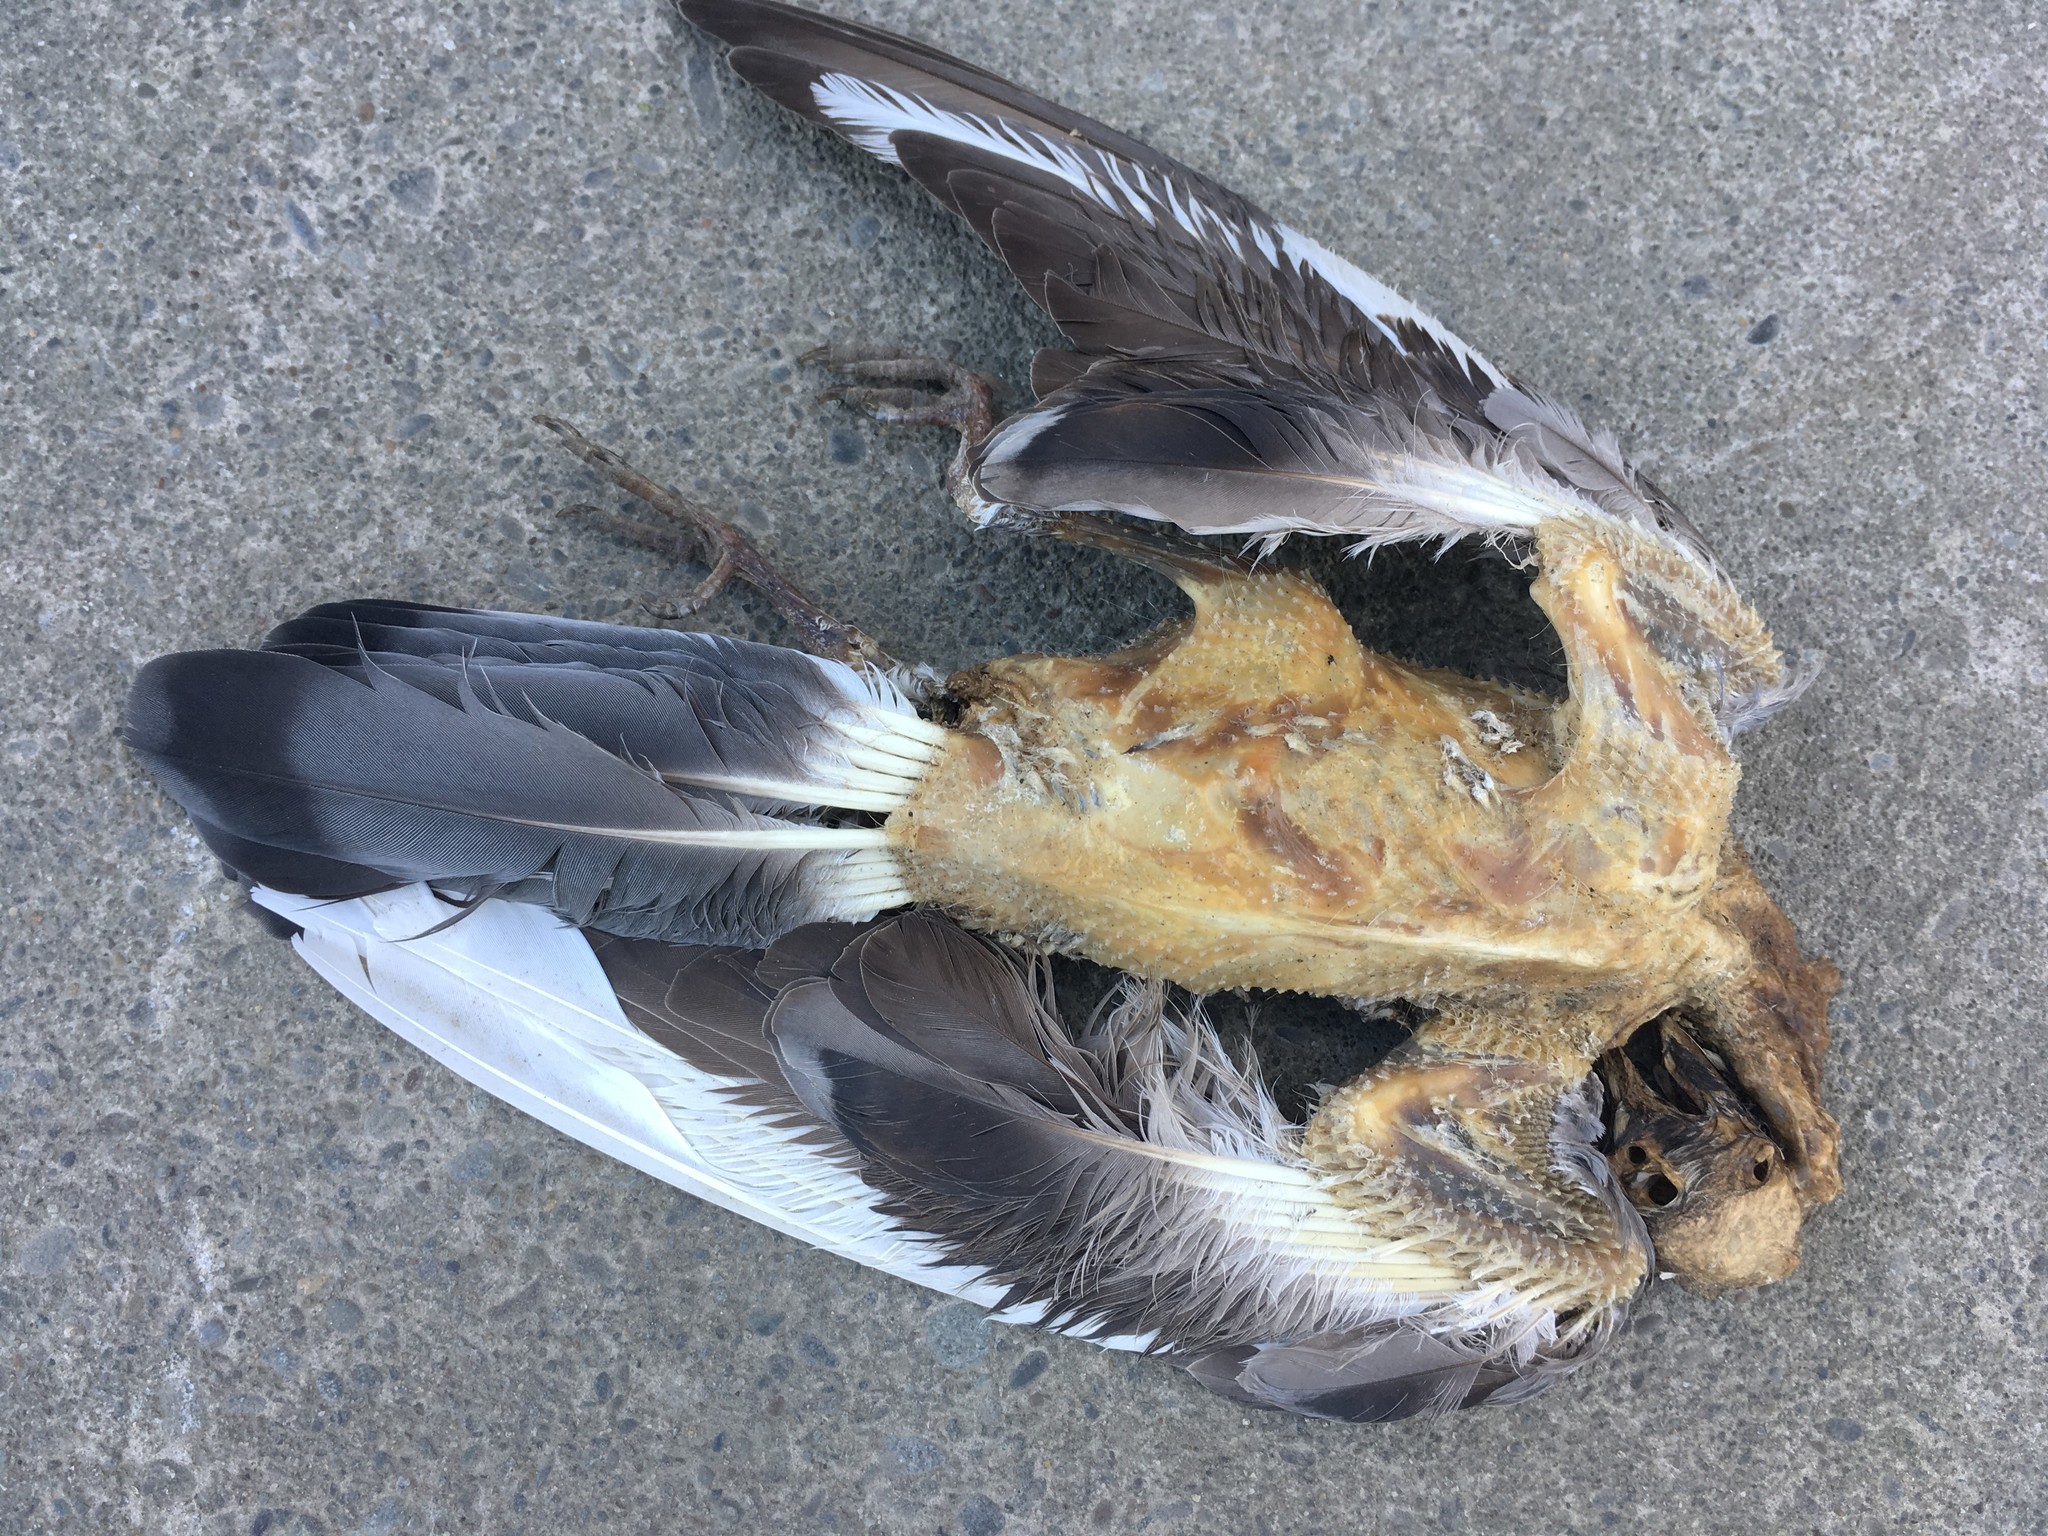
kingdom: Animalia
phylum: Chordata
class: Aves
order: Columbiformes
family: Columbidae
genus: Columba
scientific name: Columba livia
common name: Rock pigeon
